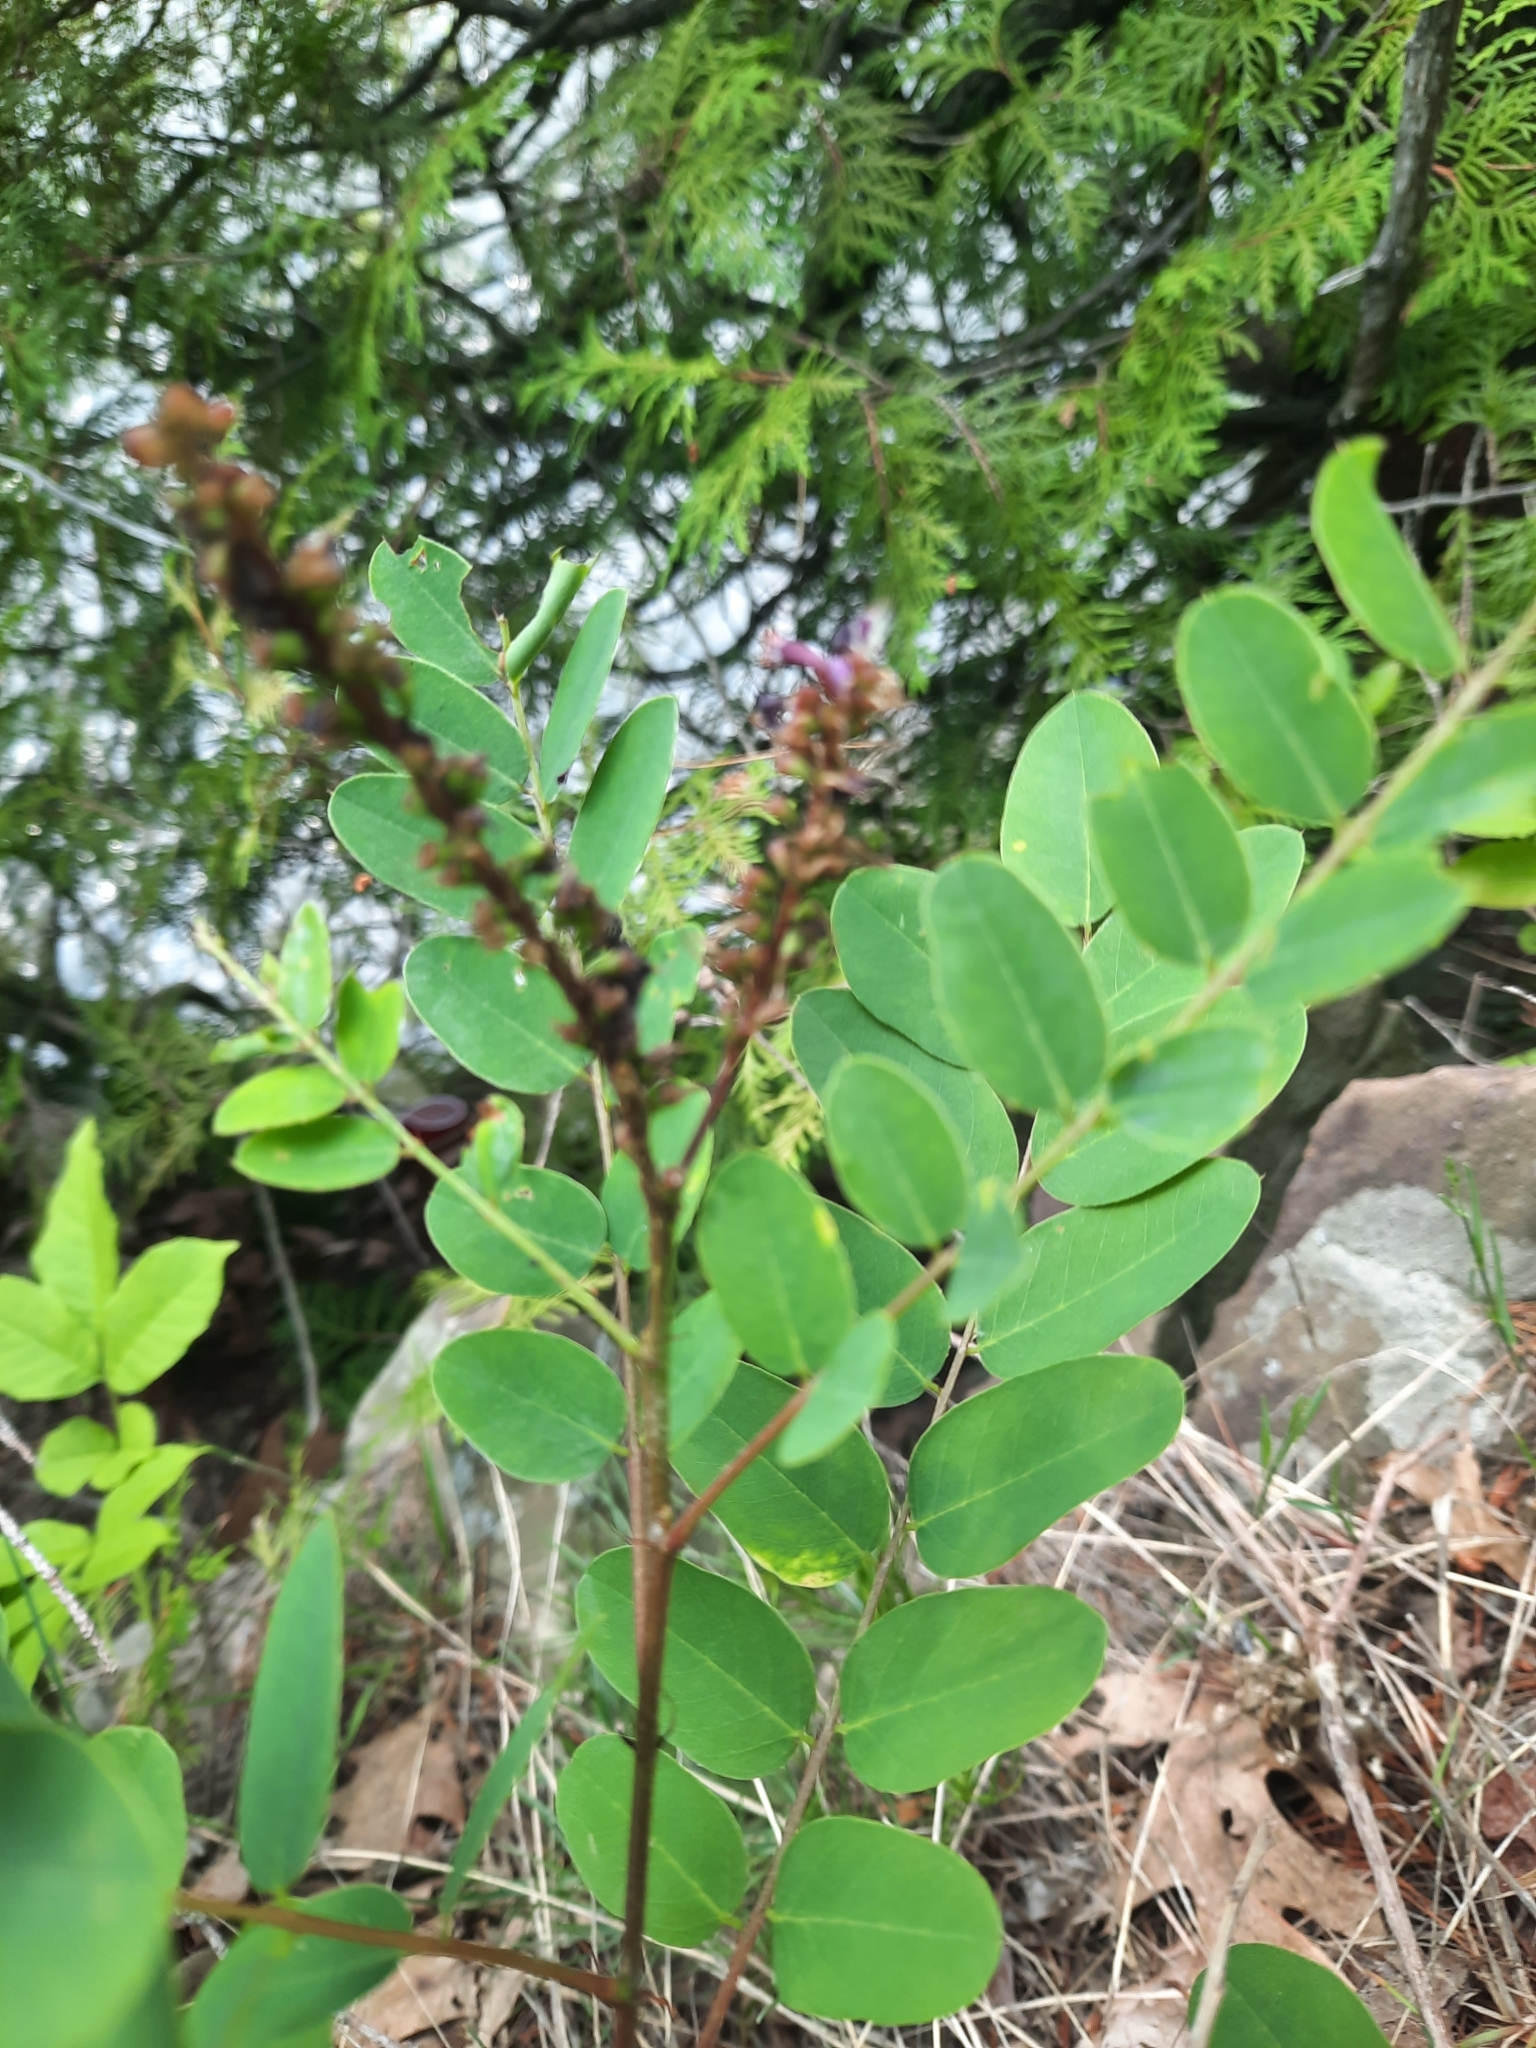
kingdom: Plantae
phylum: Tracheophyta
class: Magnoliopsida
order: Fabales
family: Fabaceae
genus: Amorpha
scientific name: Amorpha fruticosa
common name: False indigo
